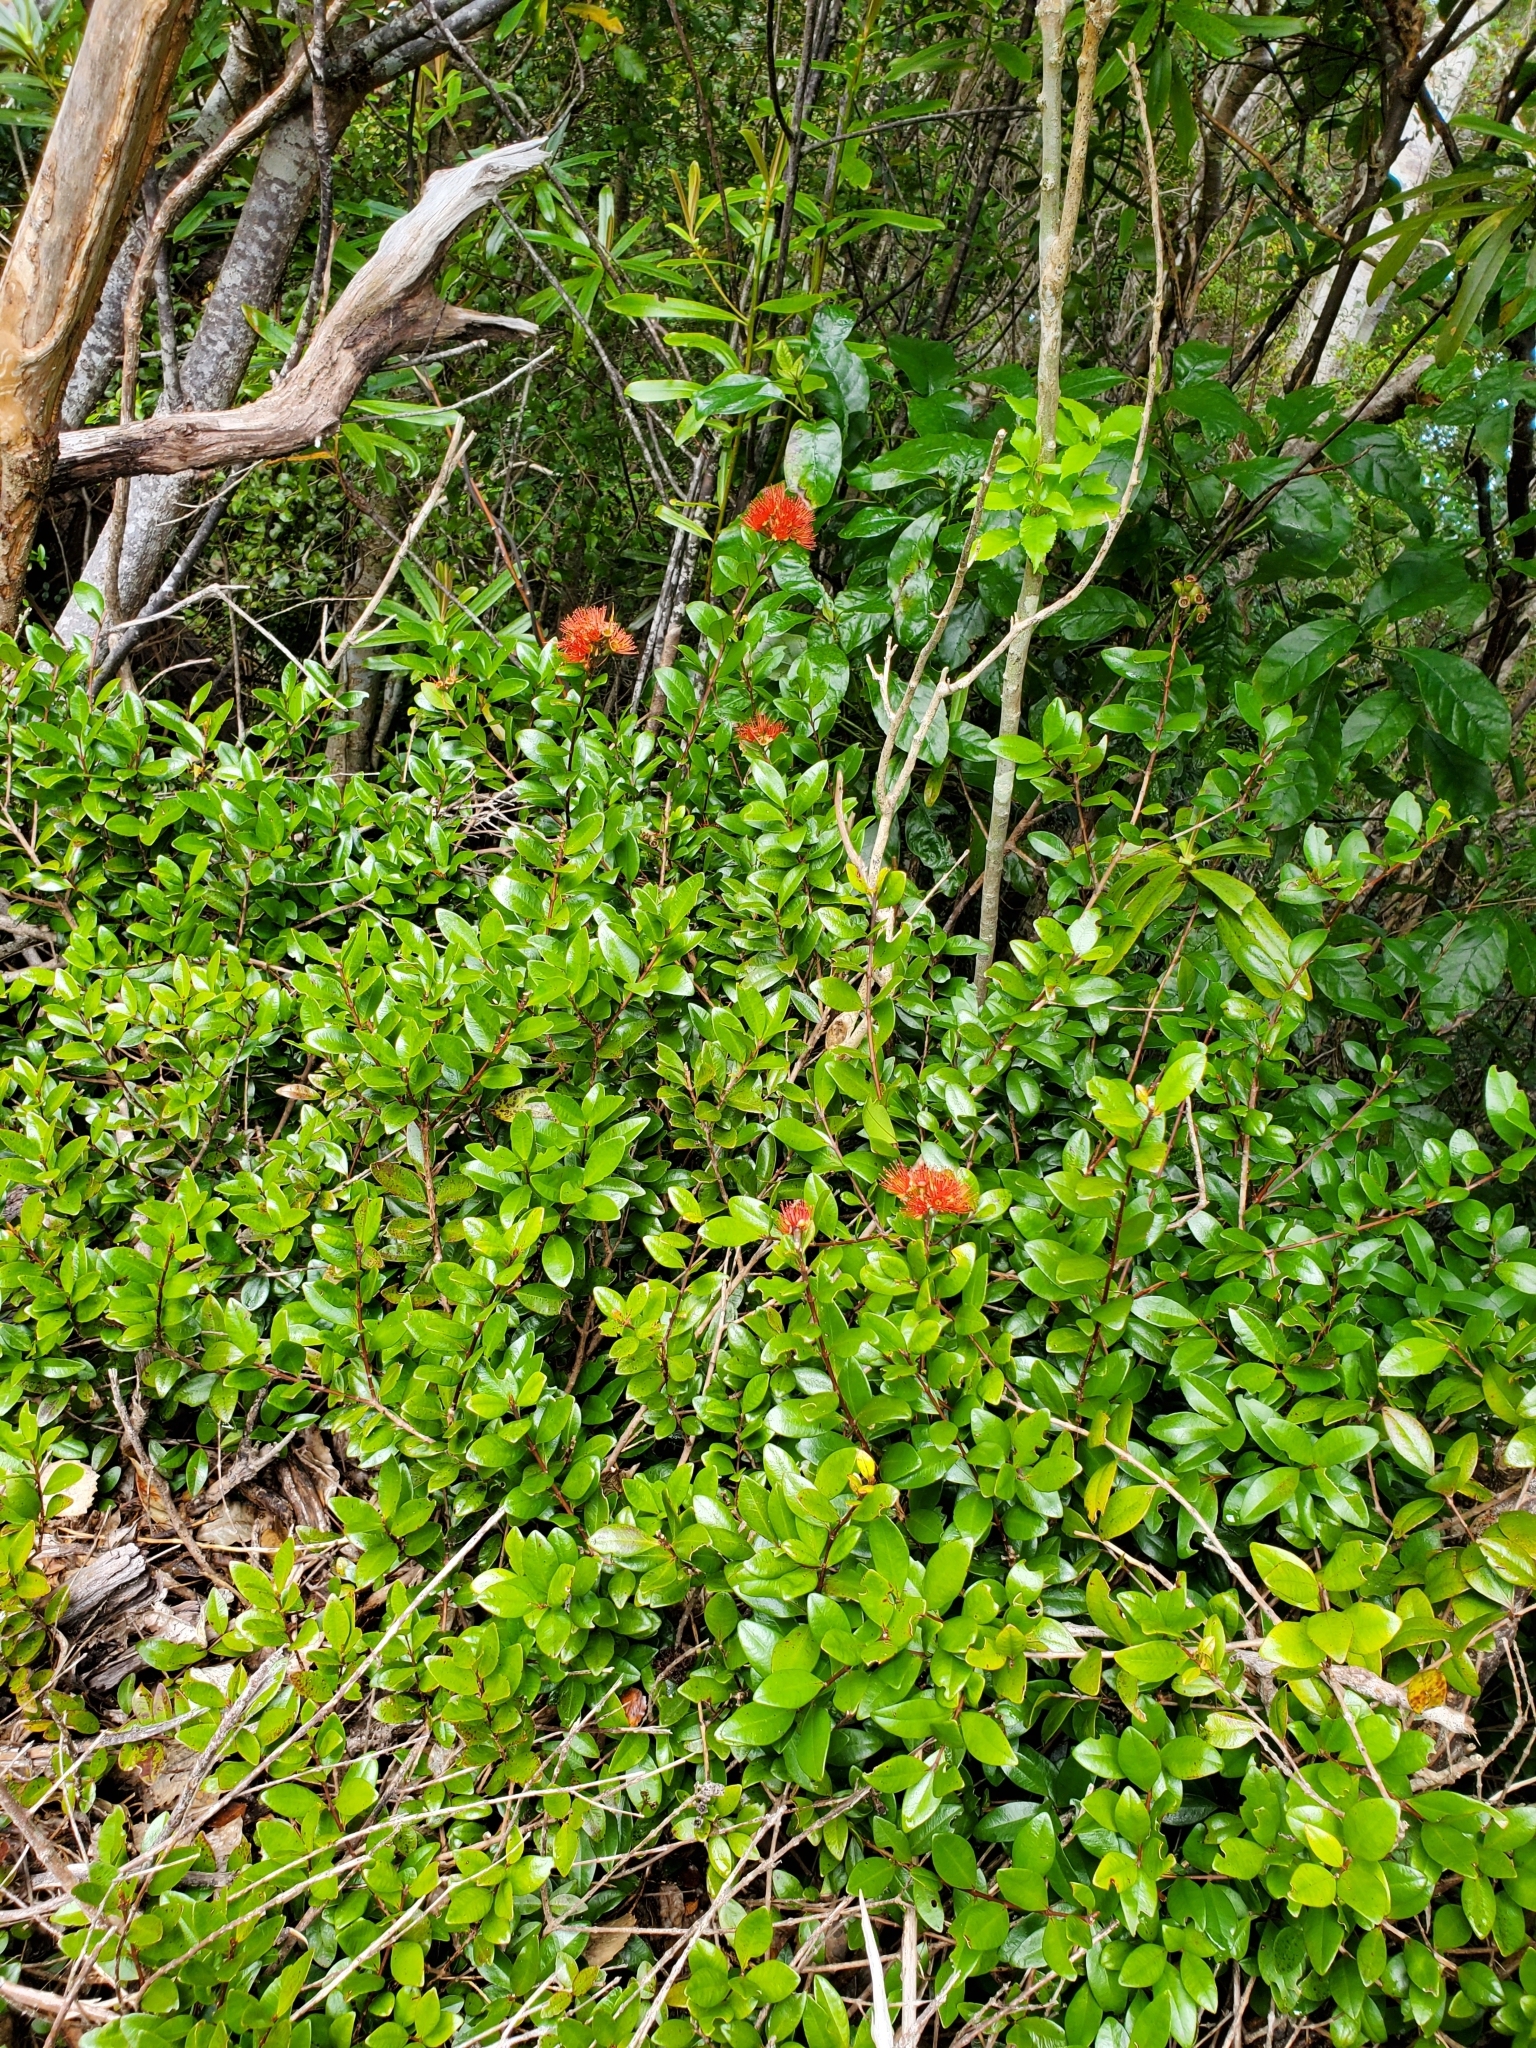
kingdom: Plantae
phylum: Tracheophyta
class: Magnoliopsida
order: Myrtales
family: Myrtaceae
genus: Metrosideros
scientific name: Metrosideros fulgens
